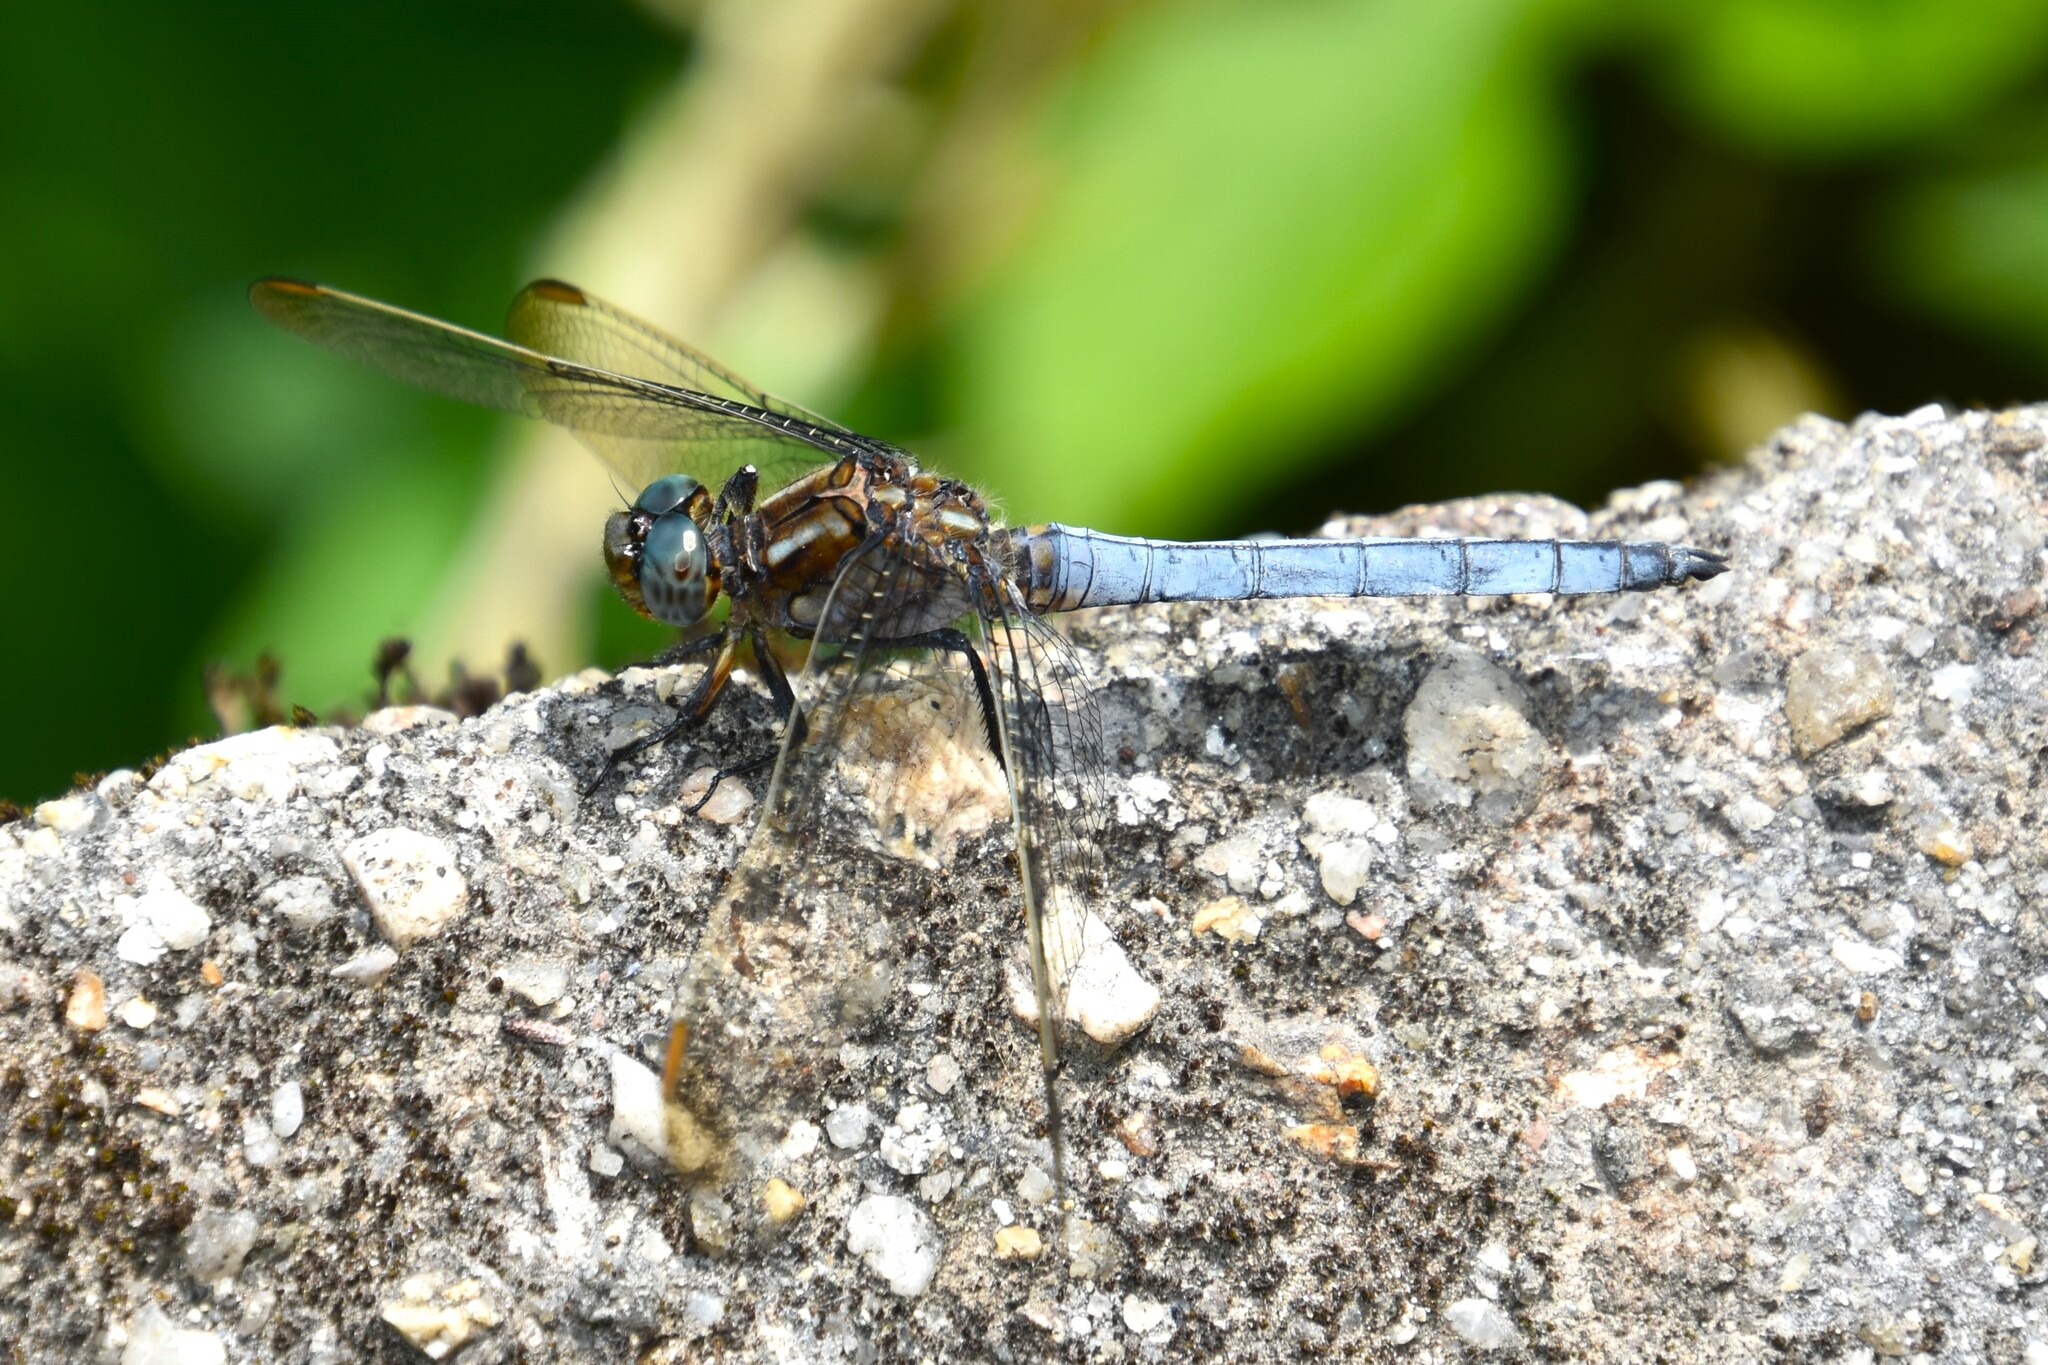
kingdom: Animalia
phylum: Arthropoda
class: Insecta
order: Odonata
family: Libellulidae
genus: Orthetrum
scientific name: Orthetrum coerulescens
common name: Keeled skimmer
